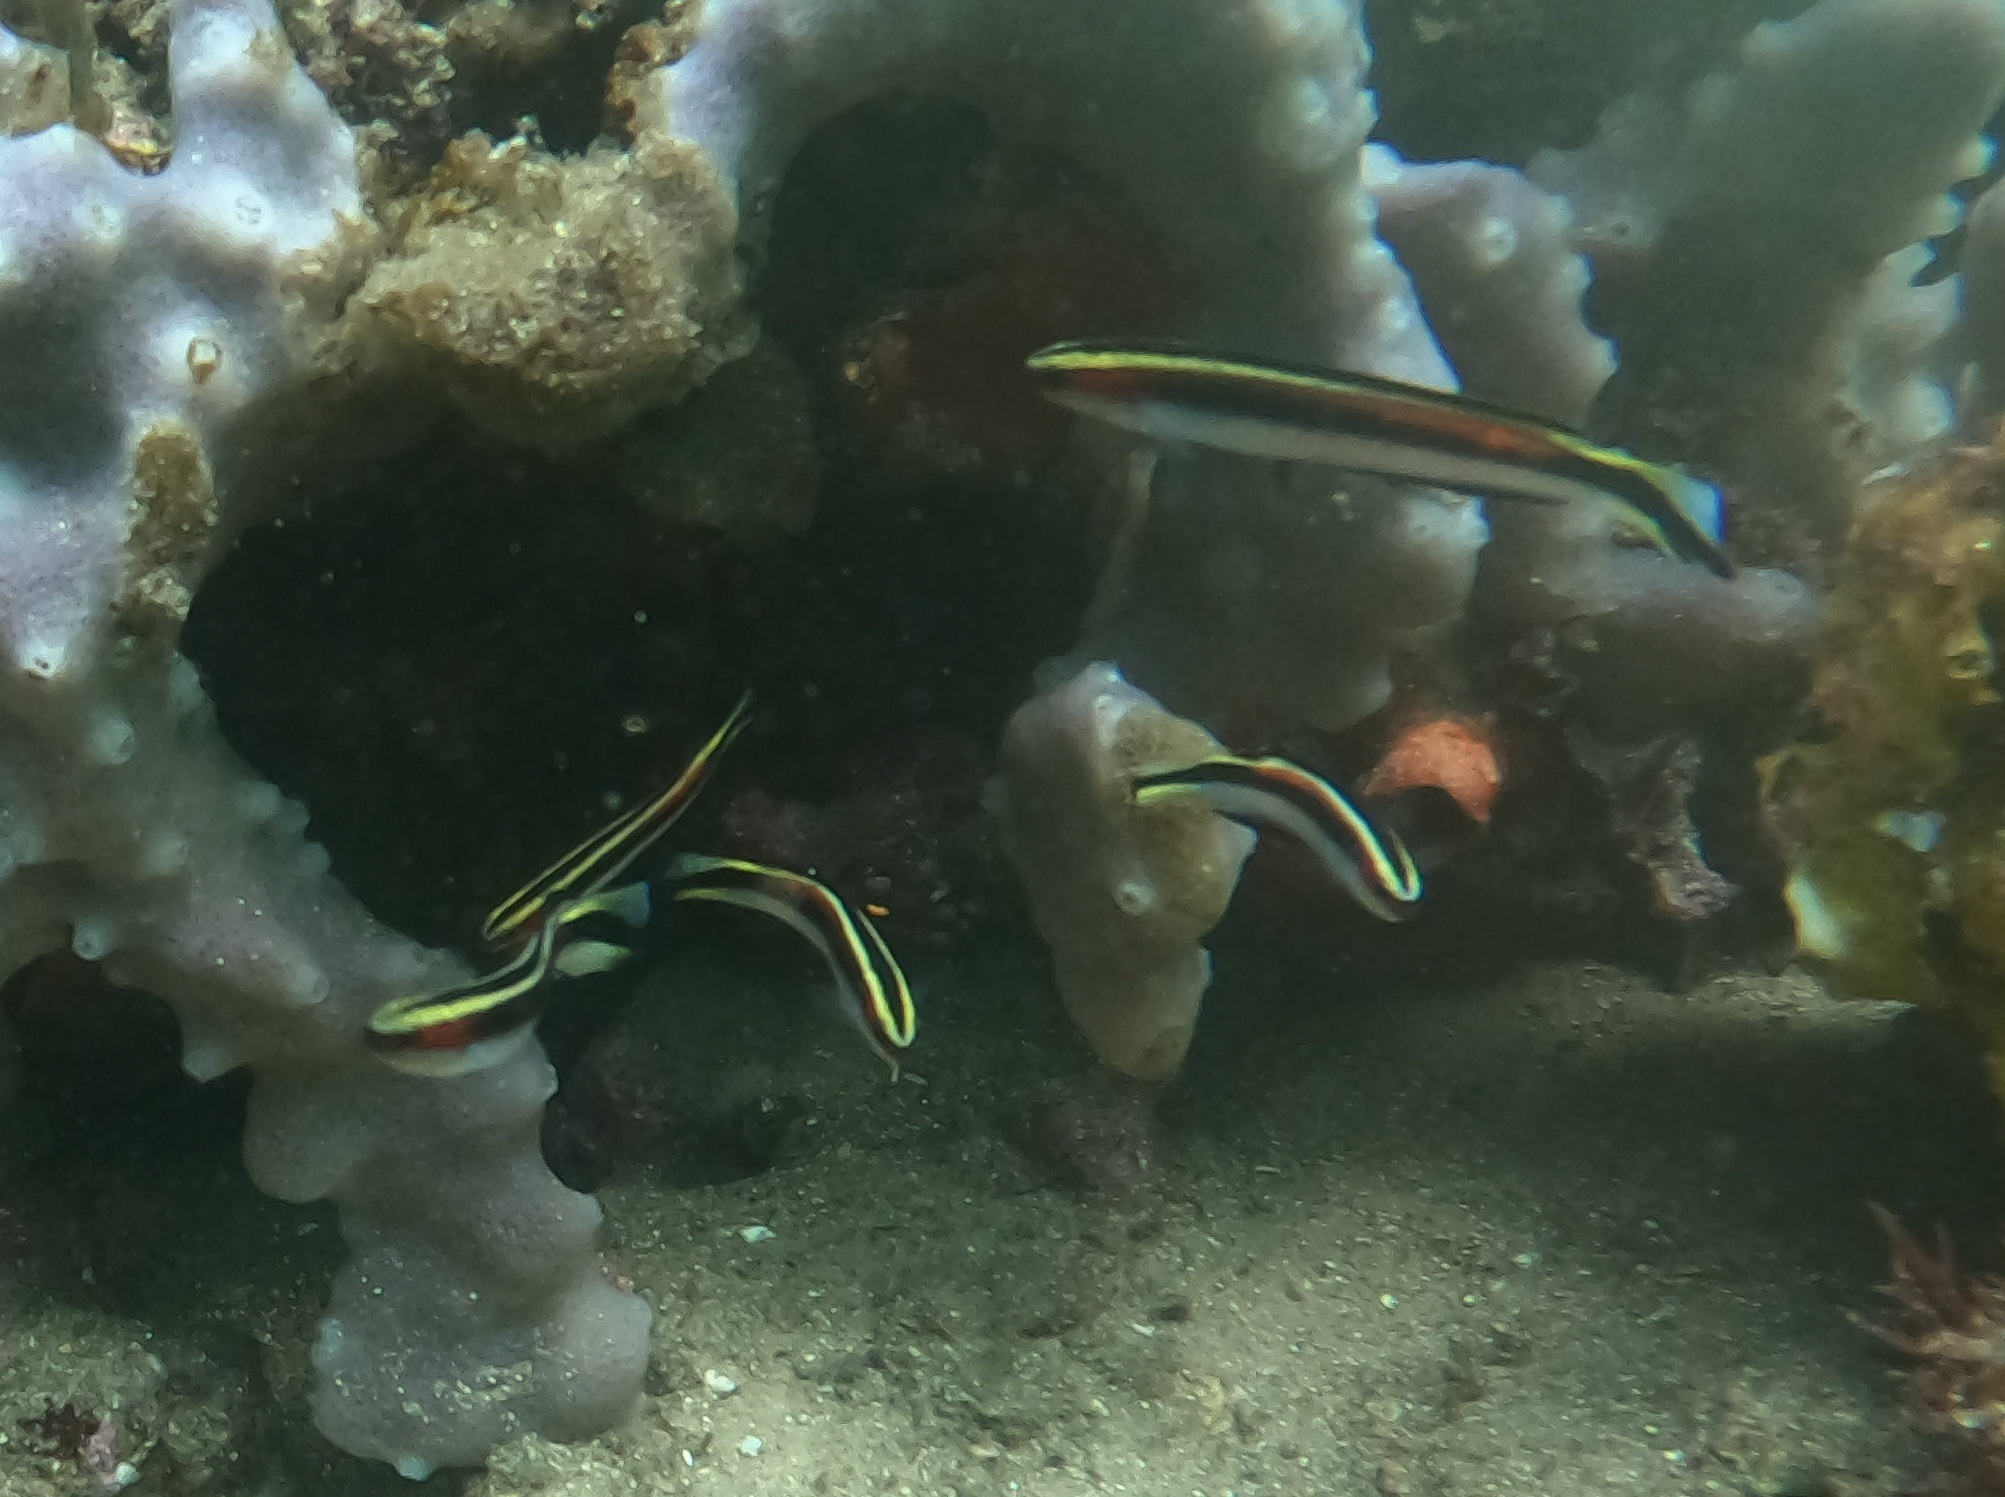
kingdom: Animalia
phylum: Chordata
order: Perciformes
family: Plesiopidae
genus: Trachinops
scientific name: Trachinops taeniatus
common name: Eastern hulafish
